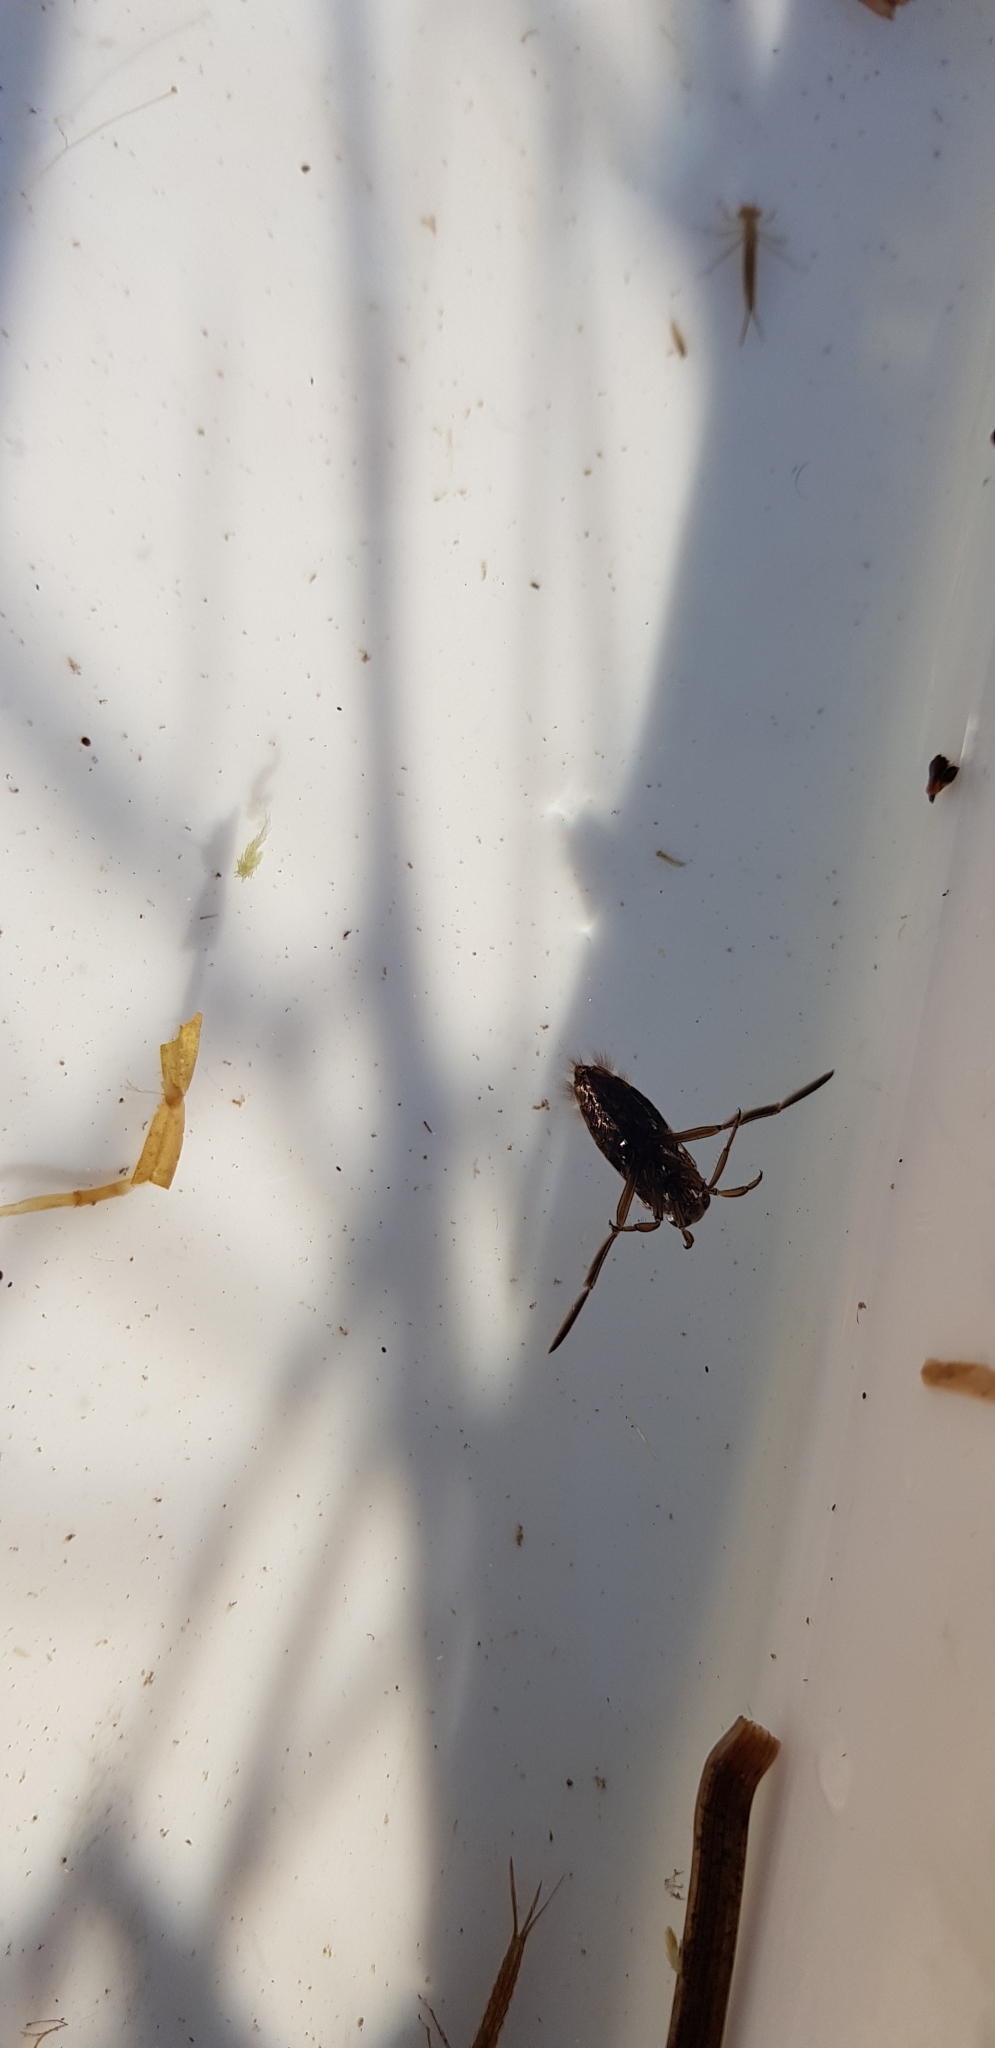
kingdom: Animalia
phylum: Arthropoda
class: Insecta
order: Hemiptera
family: Notonectidae
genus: Notonecta
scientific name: Notonecta
